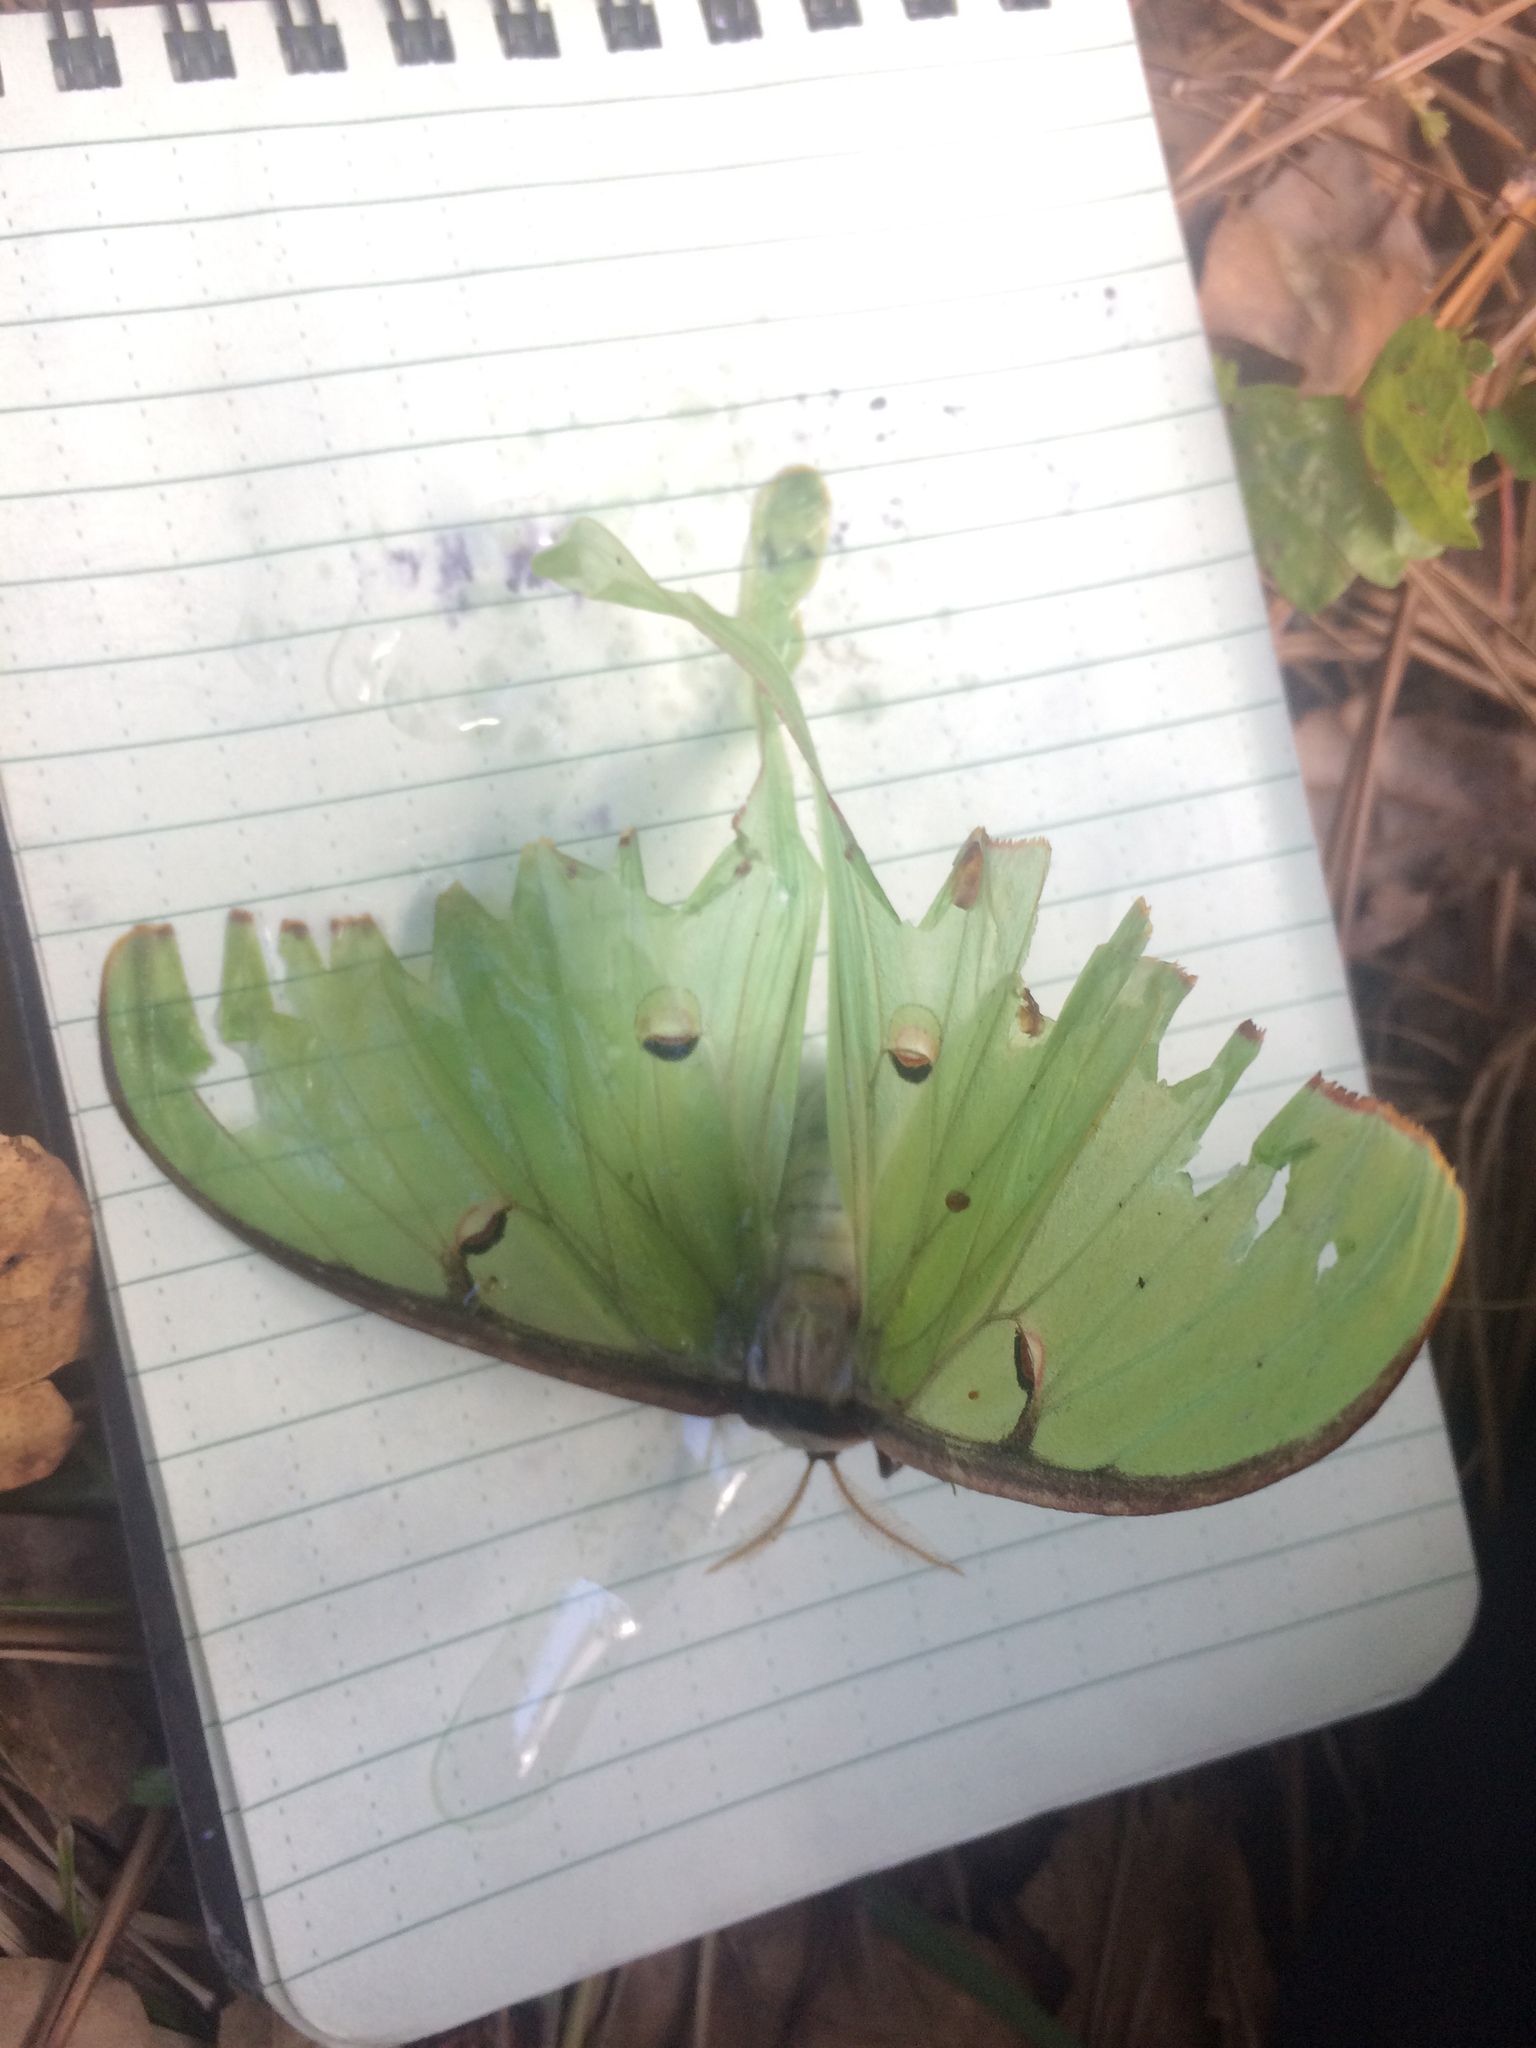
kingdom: Animalia
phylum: Arthropoda
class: Insecta
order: Lepidoptera
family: Saturniidae
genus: Actias
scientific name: Actias luna
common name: Luna moth
